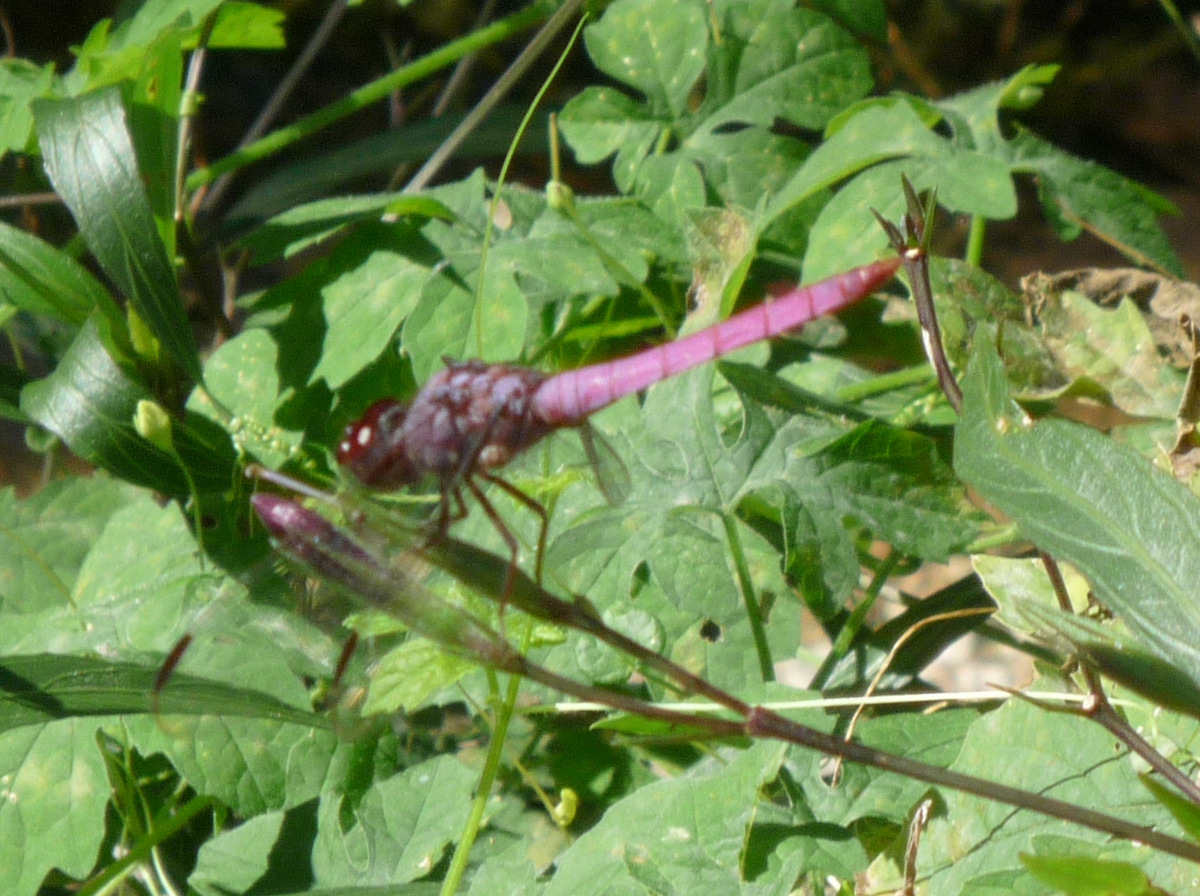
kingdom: Animalia
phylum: Arthropoda
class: Insecta
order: Odonata
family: Libellulidae
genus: Orthemis
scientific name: Orthemis ferruginea
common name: Roseate skimmer
